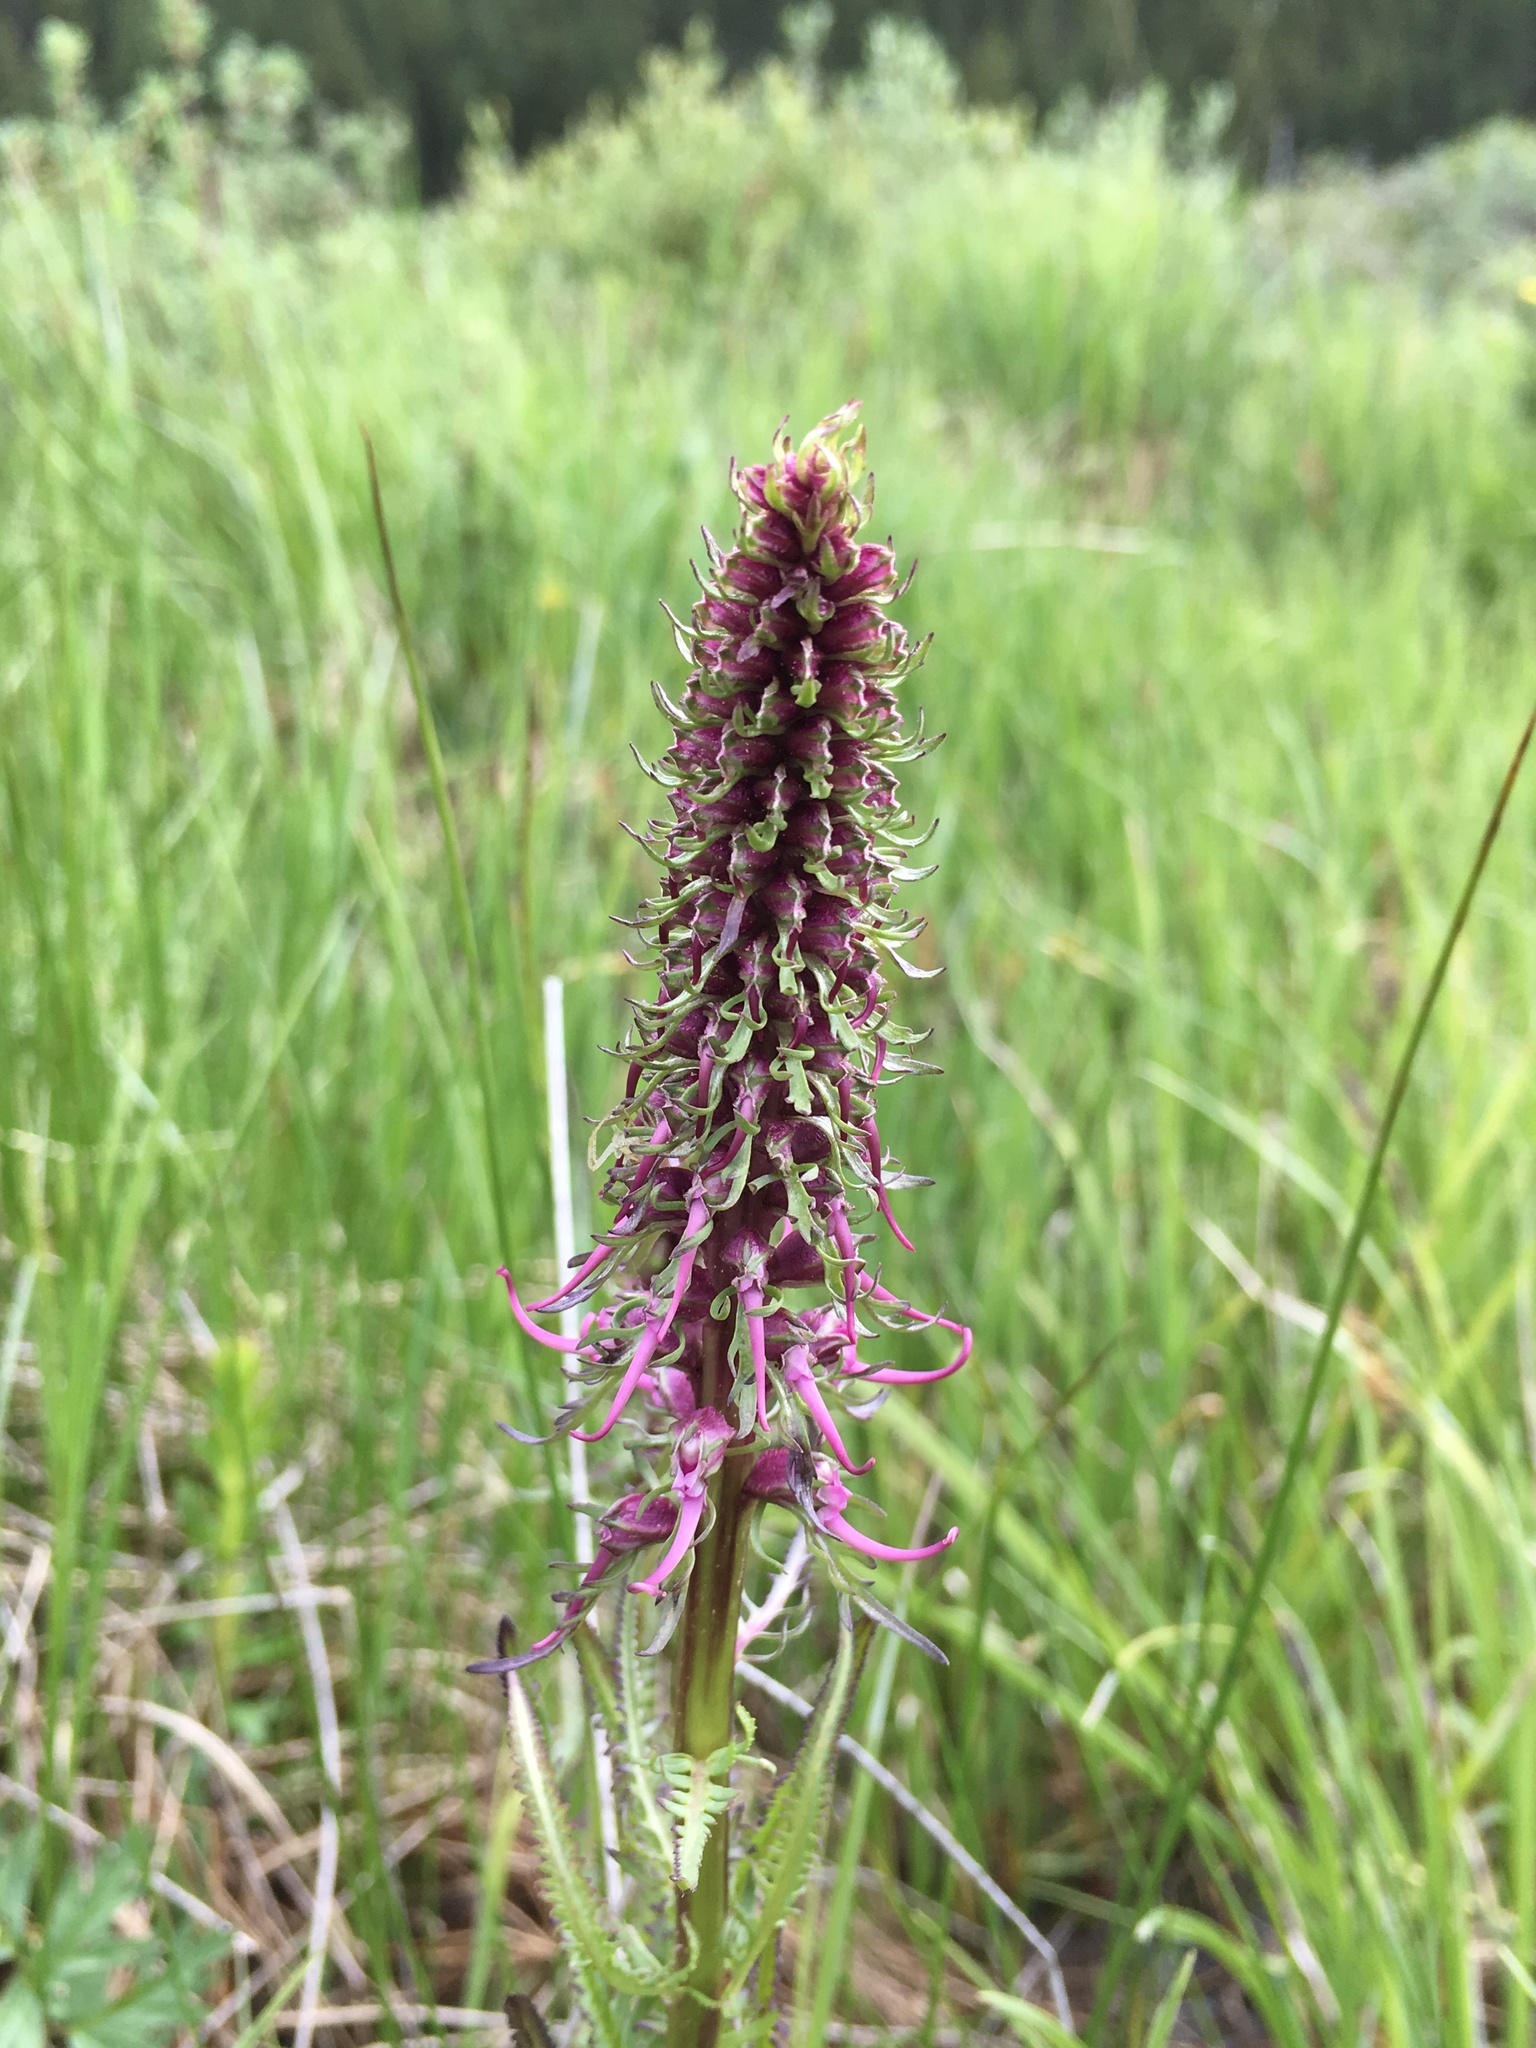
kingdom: Plantae
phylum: Tracheophyta
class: Magnoliopsida
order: Lamiales
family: Orobanchaceae
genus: Pedicularis
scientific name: Pedicularis groenlandica
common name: Elephant's-head
